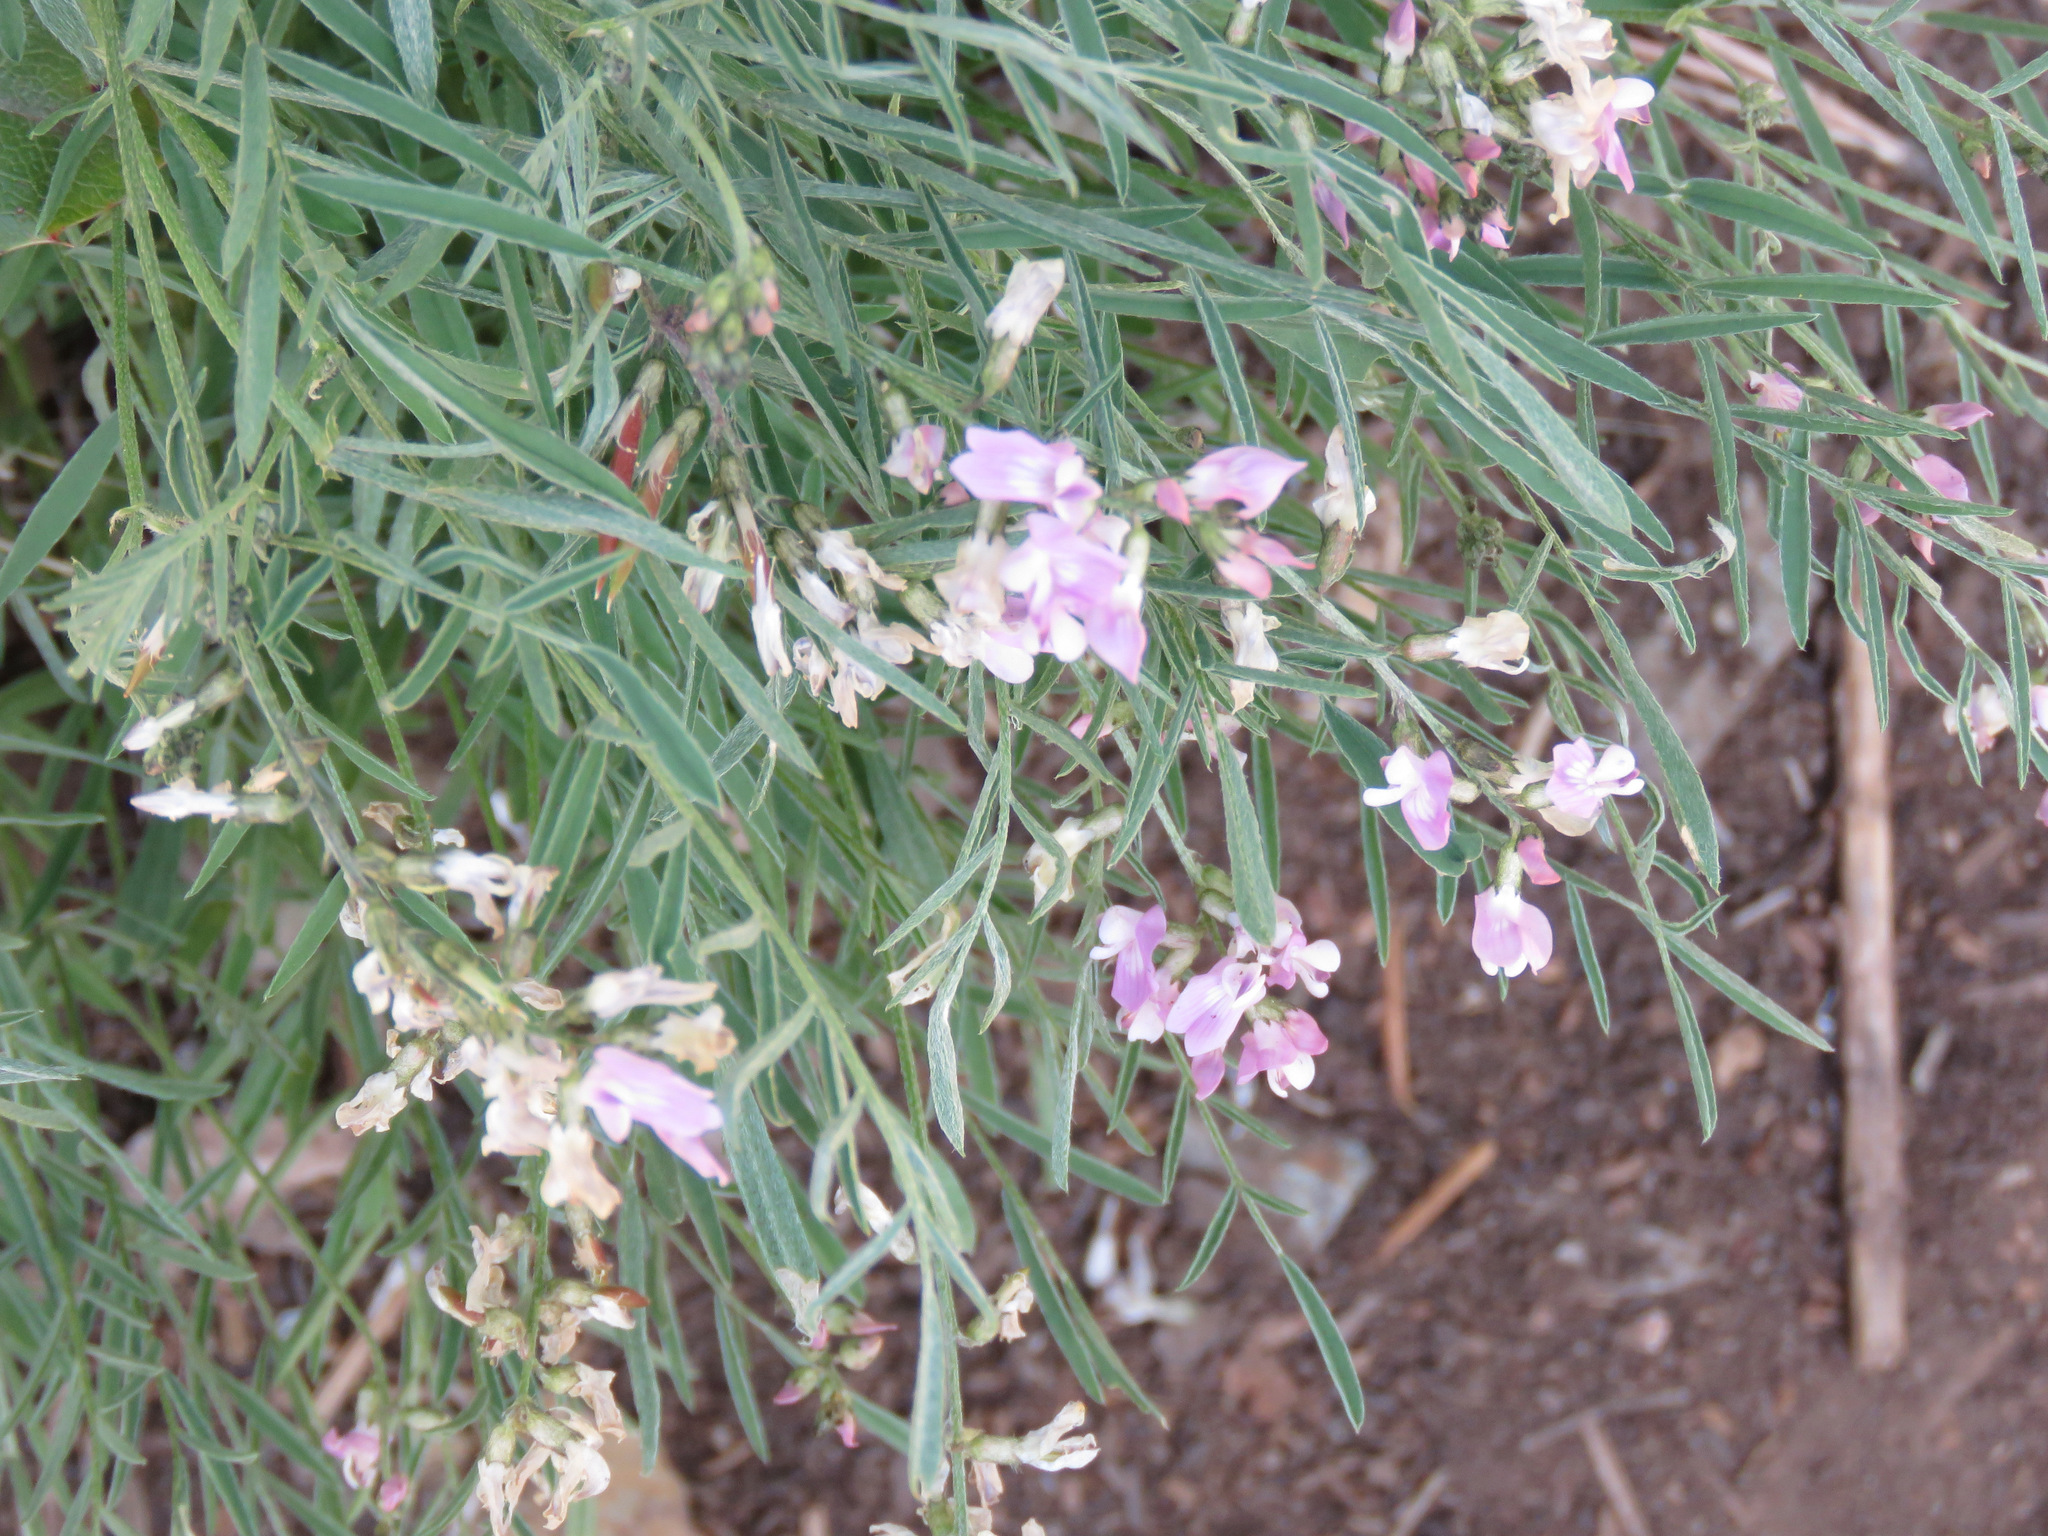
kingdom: Plantae
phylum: Tracheophyta
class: Magnoliopsida
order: Fabales
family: Fabaceae
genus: Astragalus
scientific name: Astragalus miser
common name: Timber milkvetch
